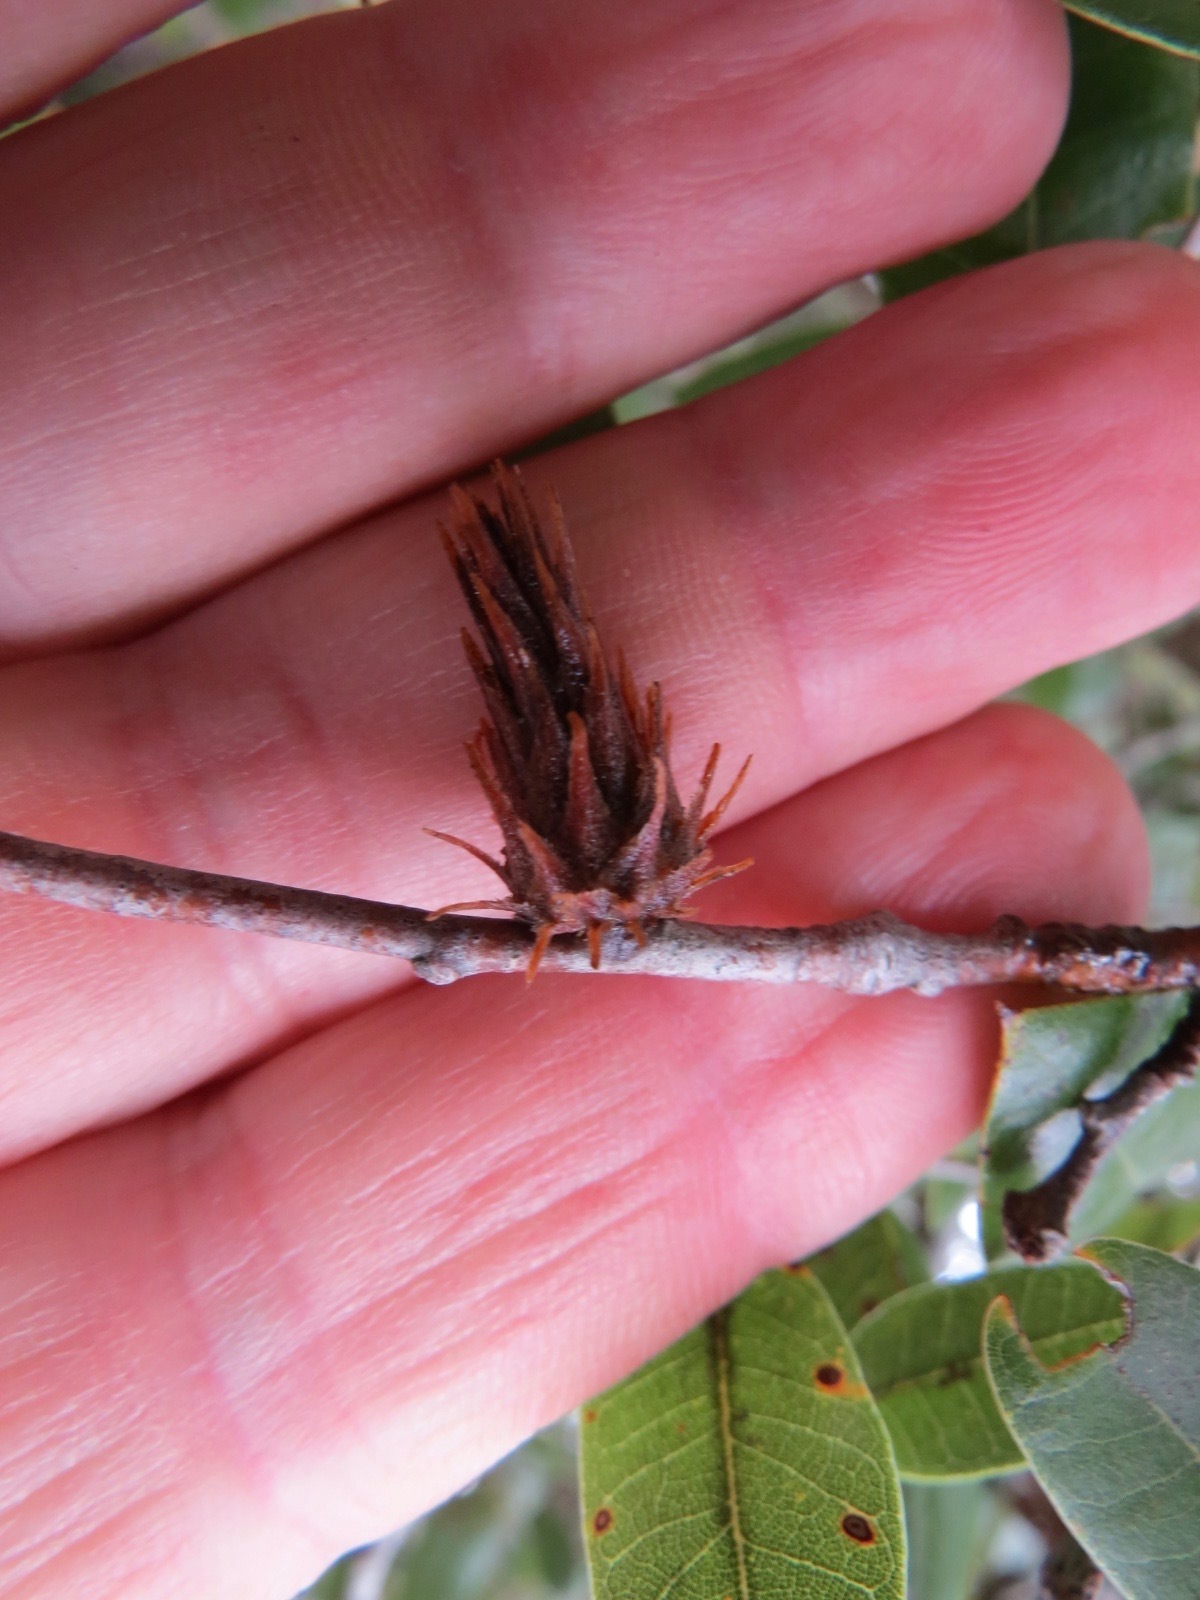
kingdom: Animalia
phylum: Arthropoda
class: Insecta
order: Hymenoptera
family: Cynipidae
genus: Andricus
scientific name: Andricus
